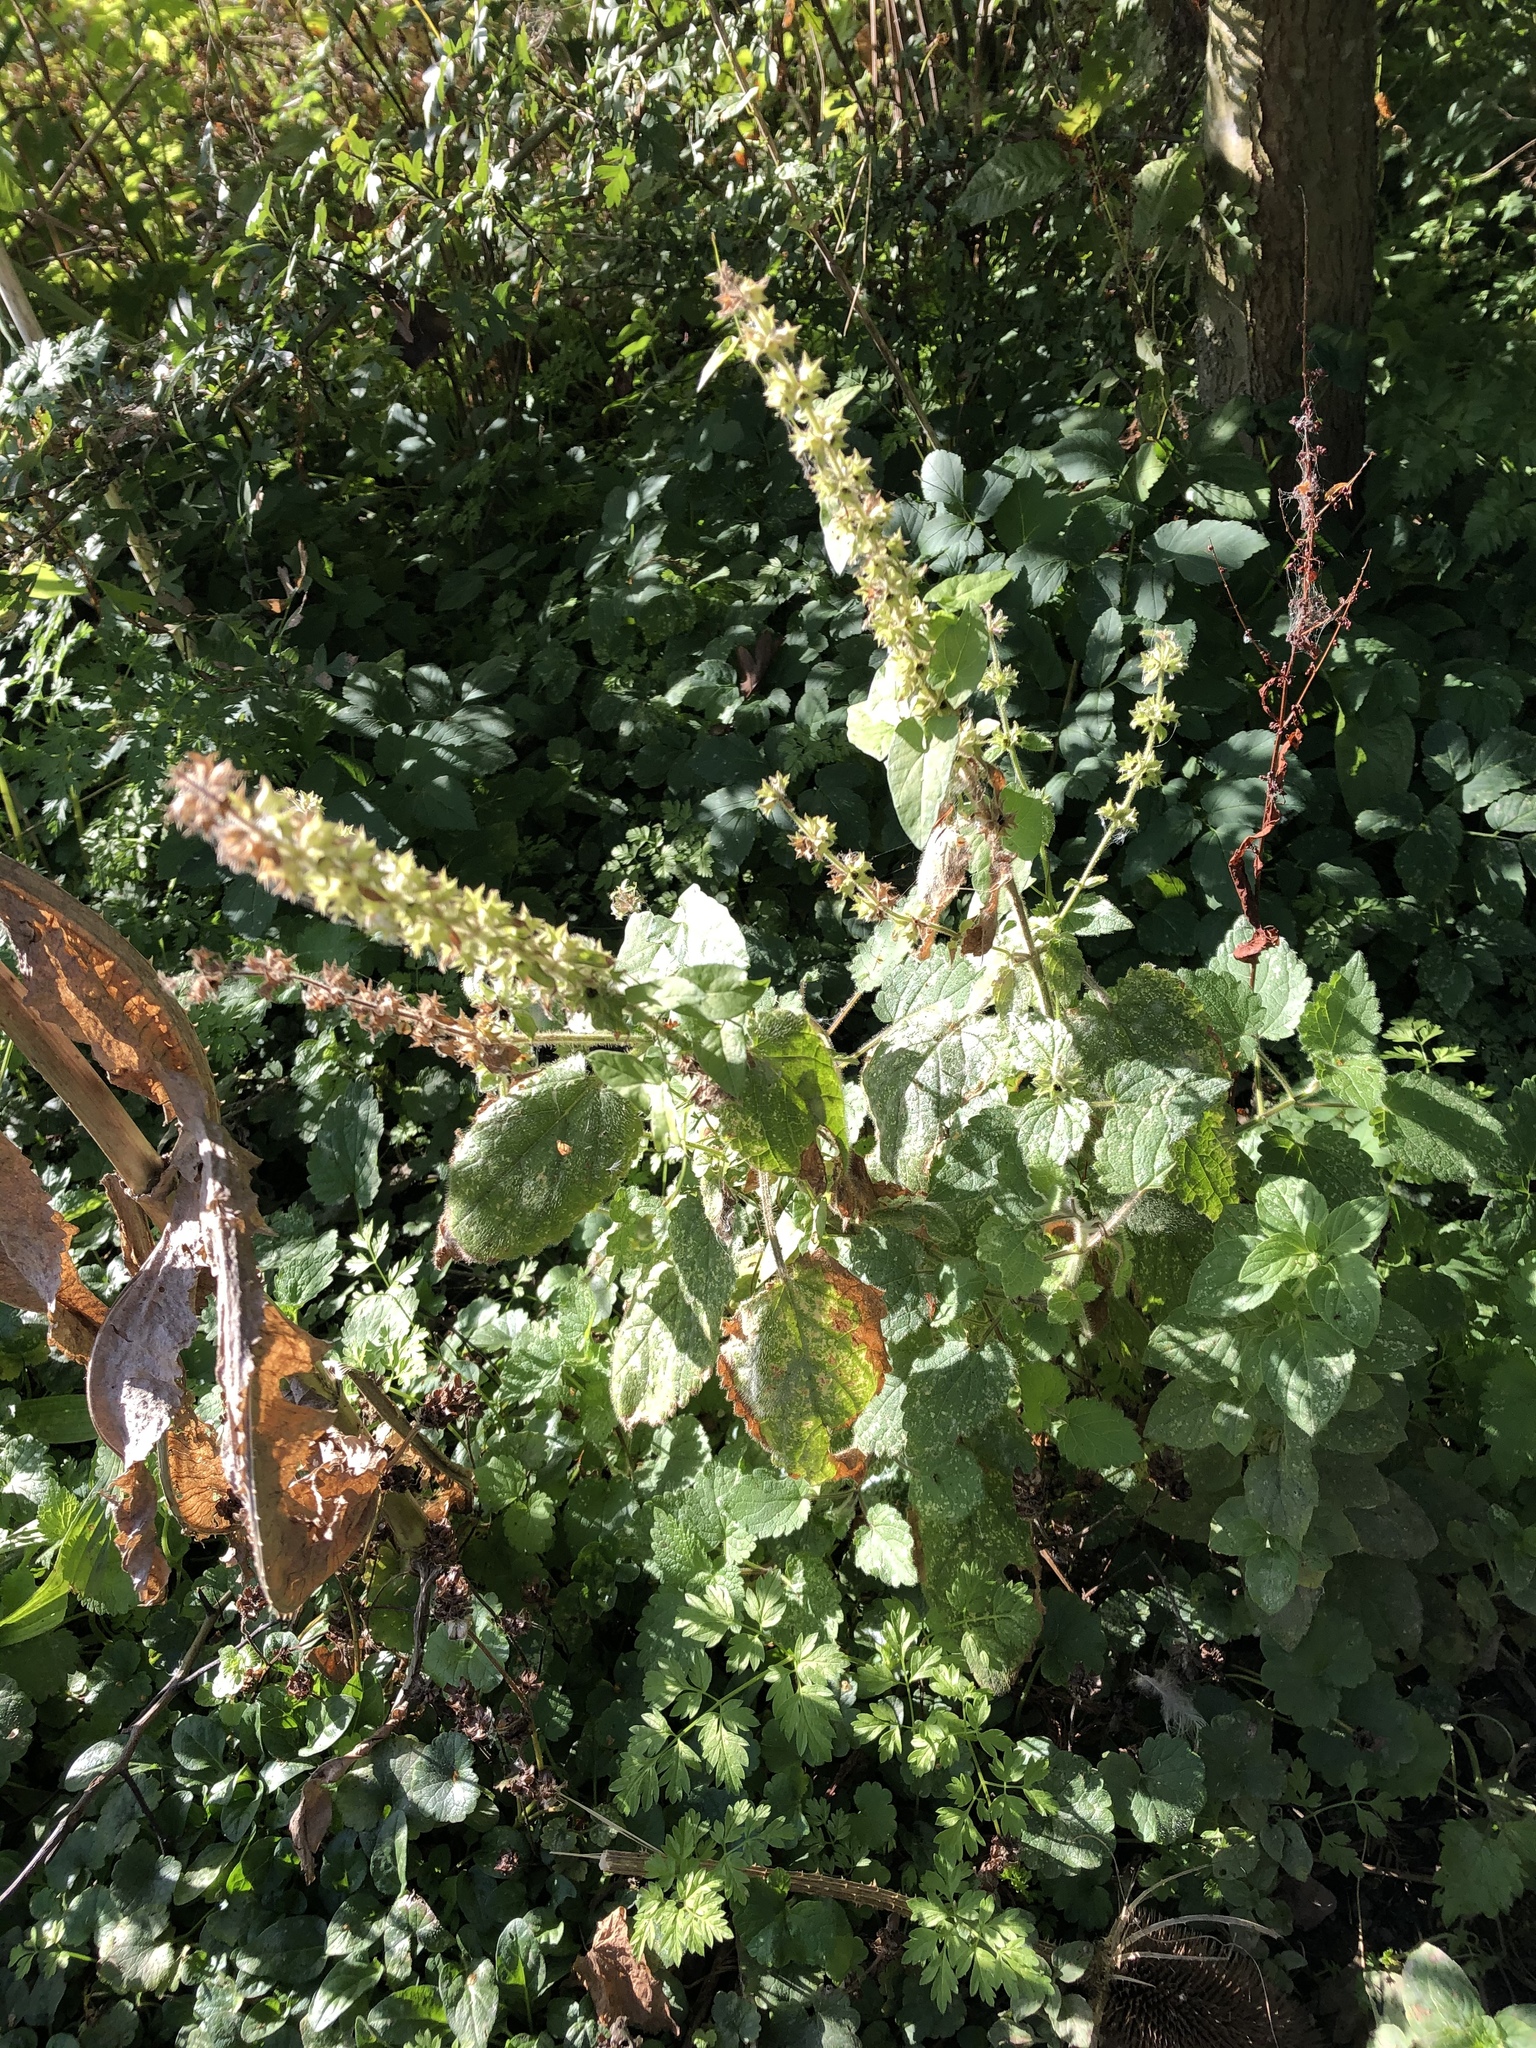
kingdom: Plantae
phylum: Tracheophyta
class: Magnoliopsida
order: Lamiales
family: Lamiaceae
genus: Stachys
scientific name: Stachys sylvatica
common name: Hedge woundwort
